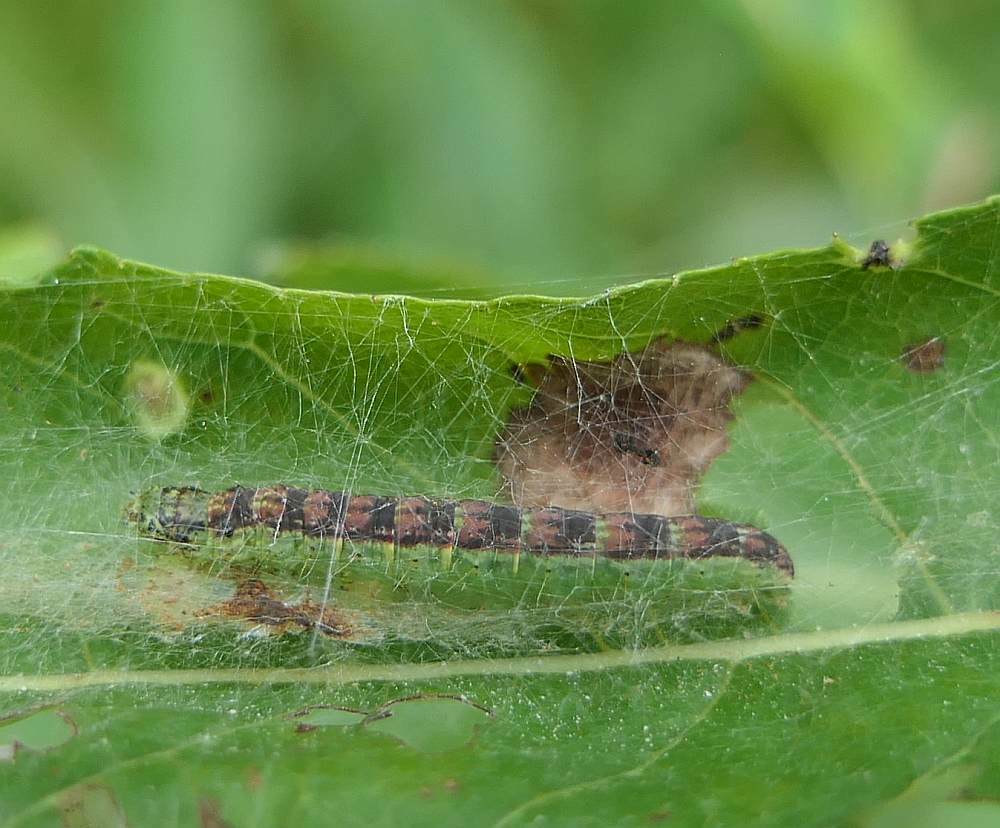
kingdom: Animalia
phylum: Arthropoda
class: Insecta
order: Lepidoptera
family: Pyralidae
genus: Oreana
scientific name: Oreana unicolorella
